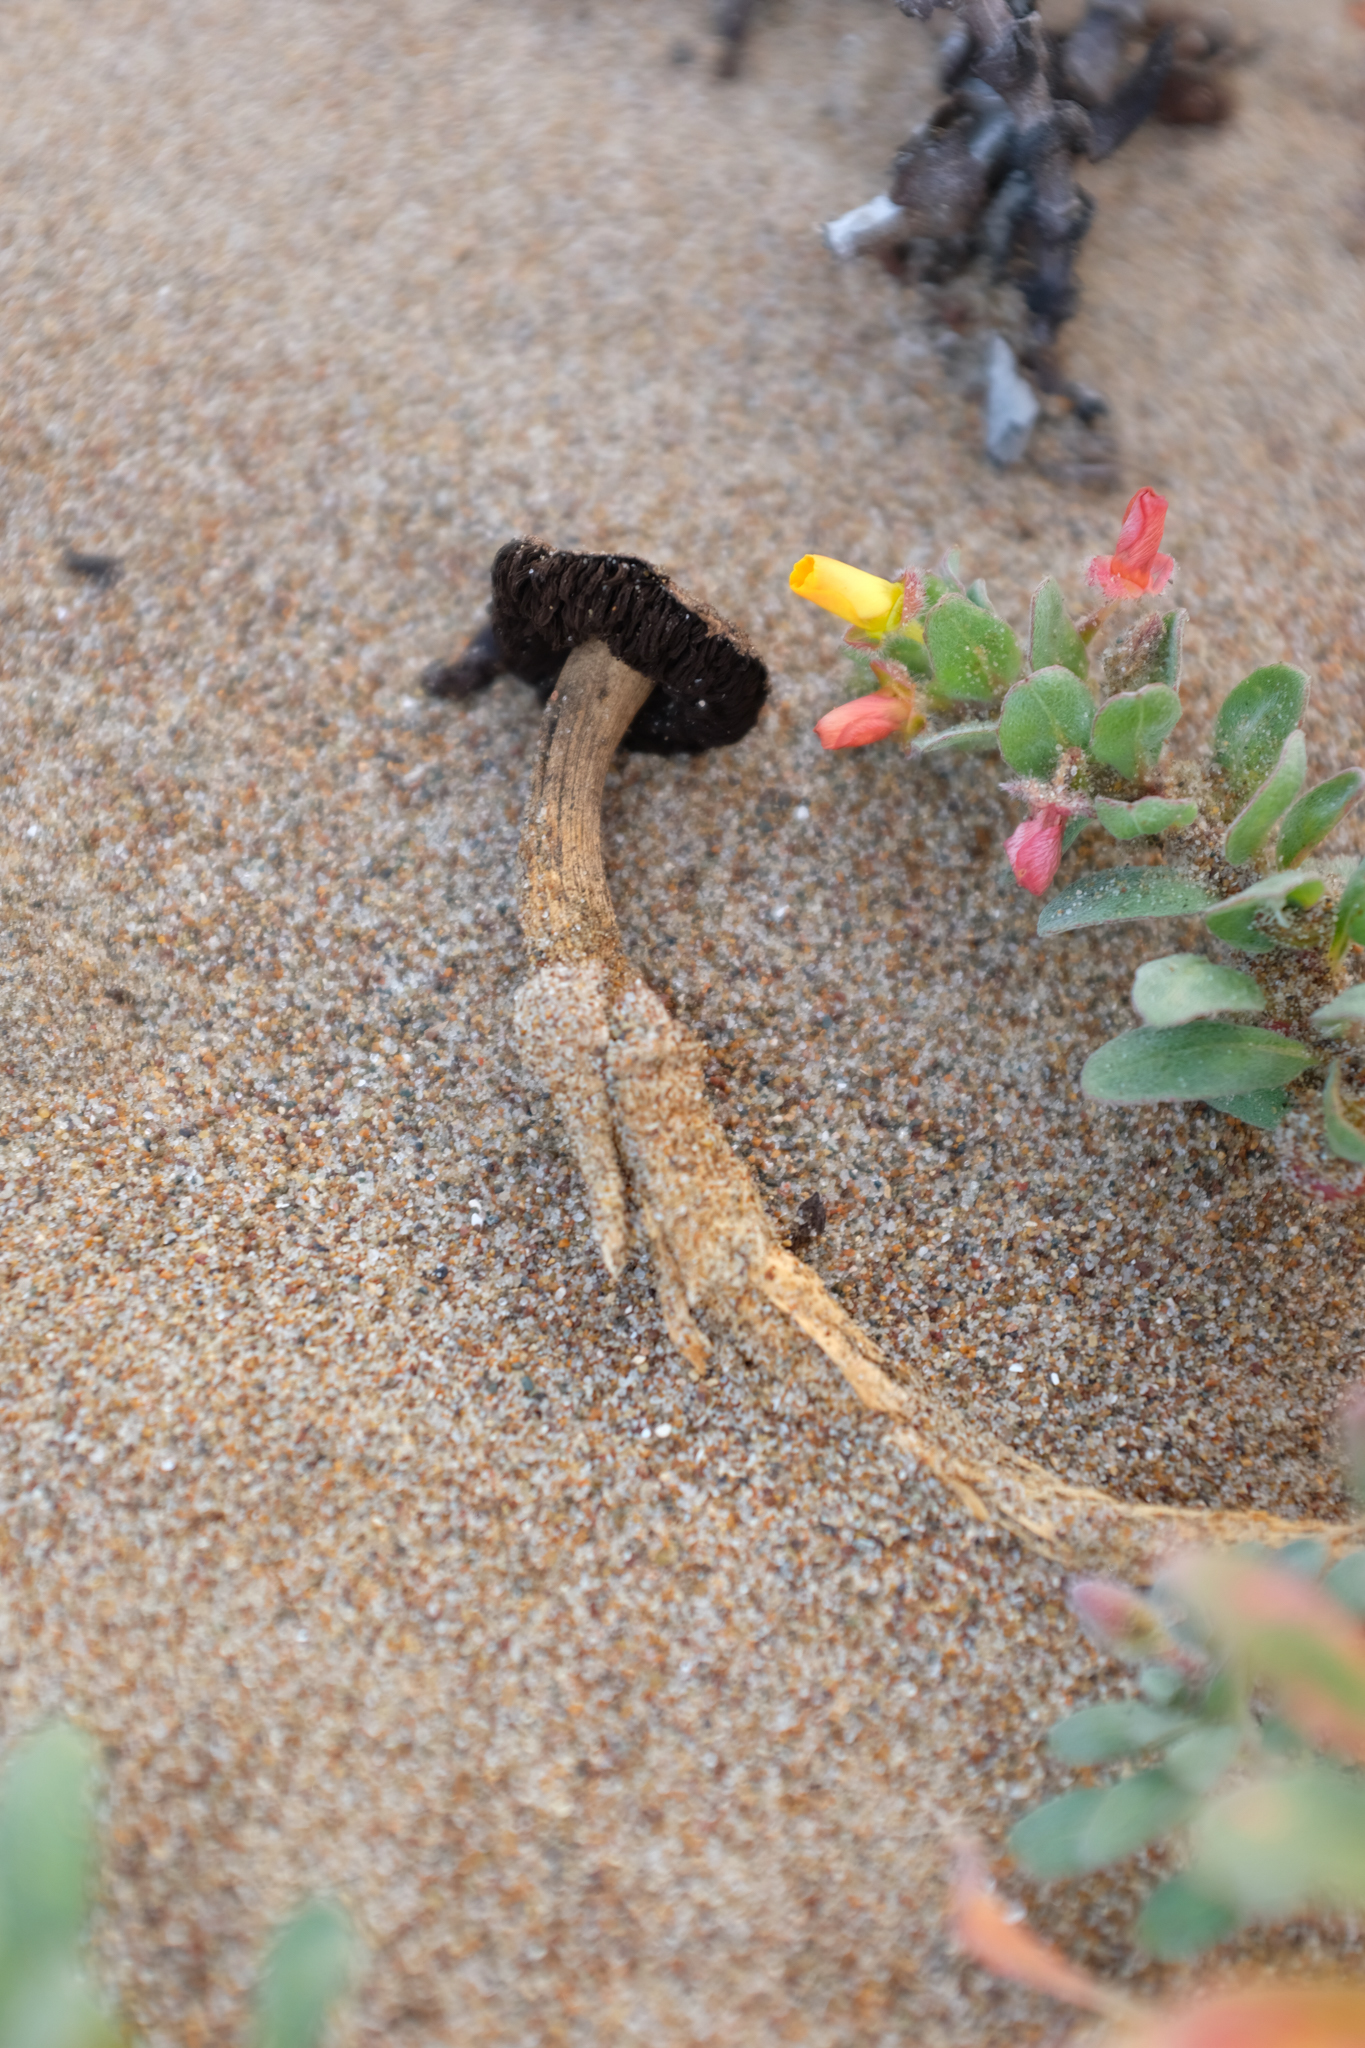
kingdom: Fungi
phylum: Basidiomycota
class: Agaricomycetes
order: Agaricales
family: Agaricaceae
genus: Montagnea
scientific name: Montagnea arenaria
